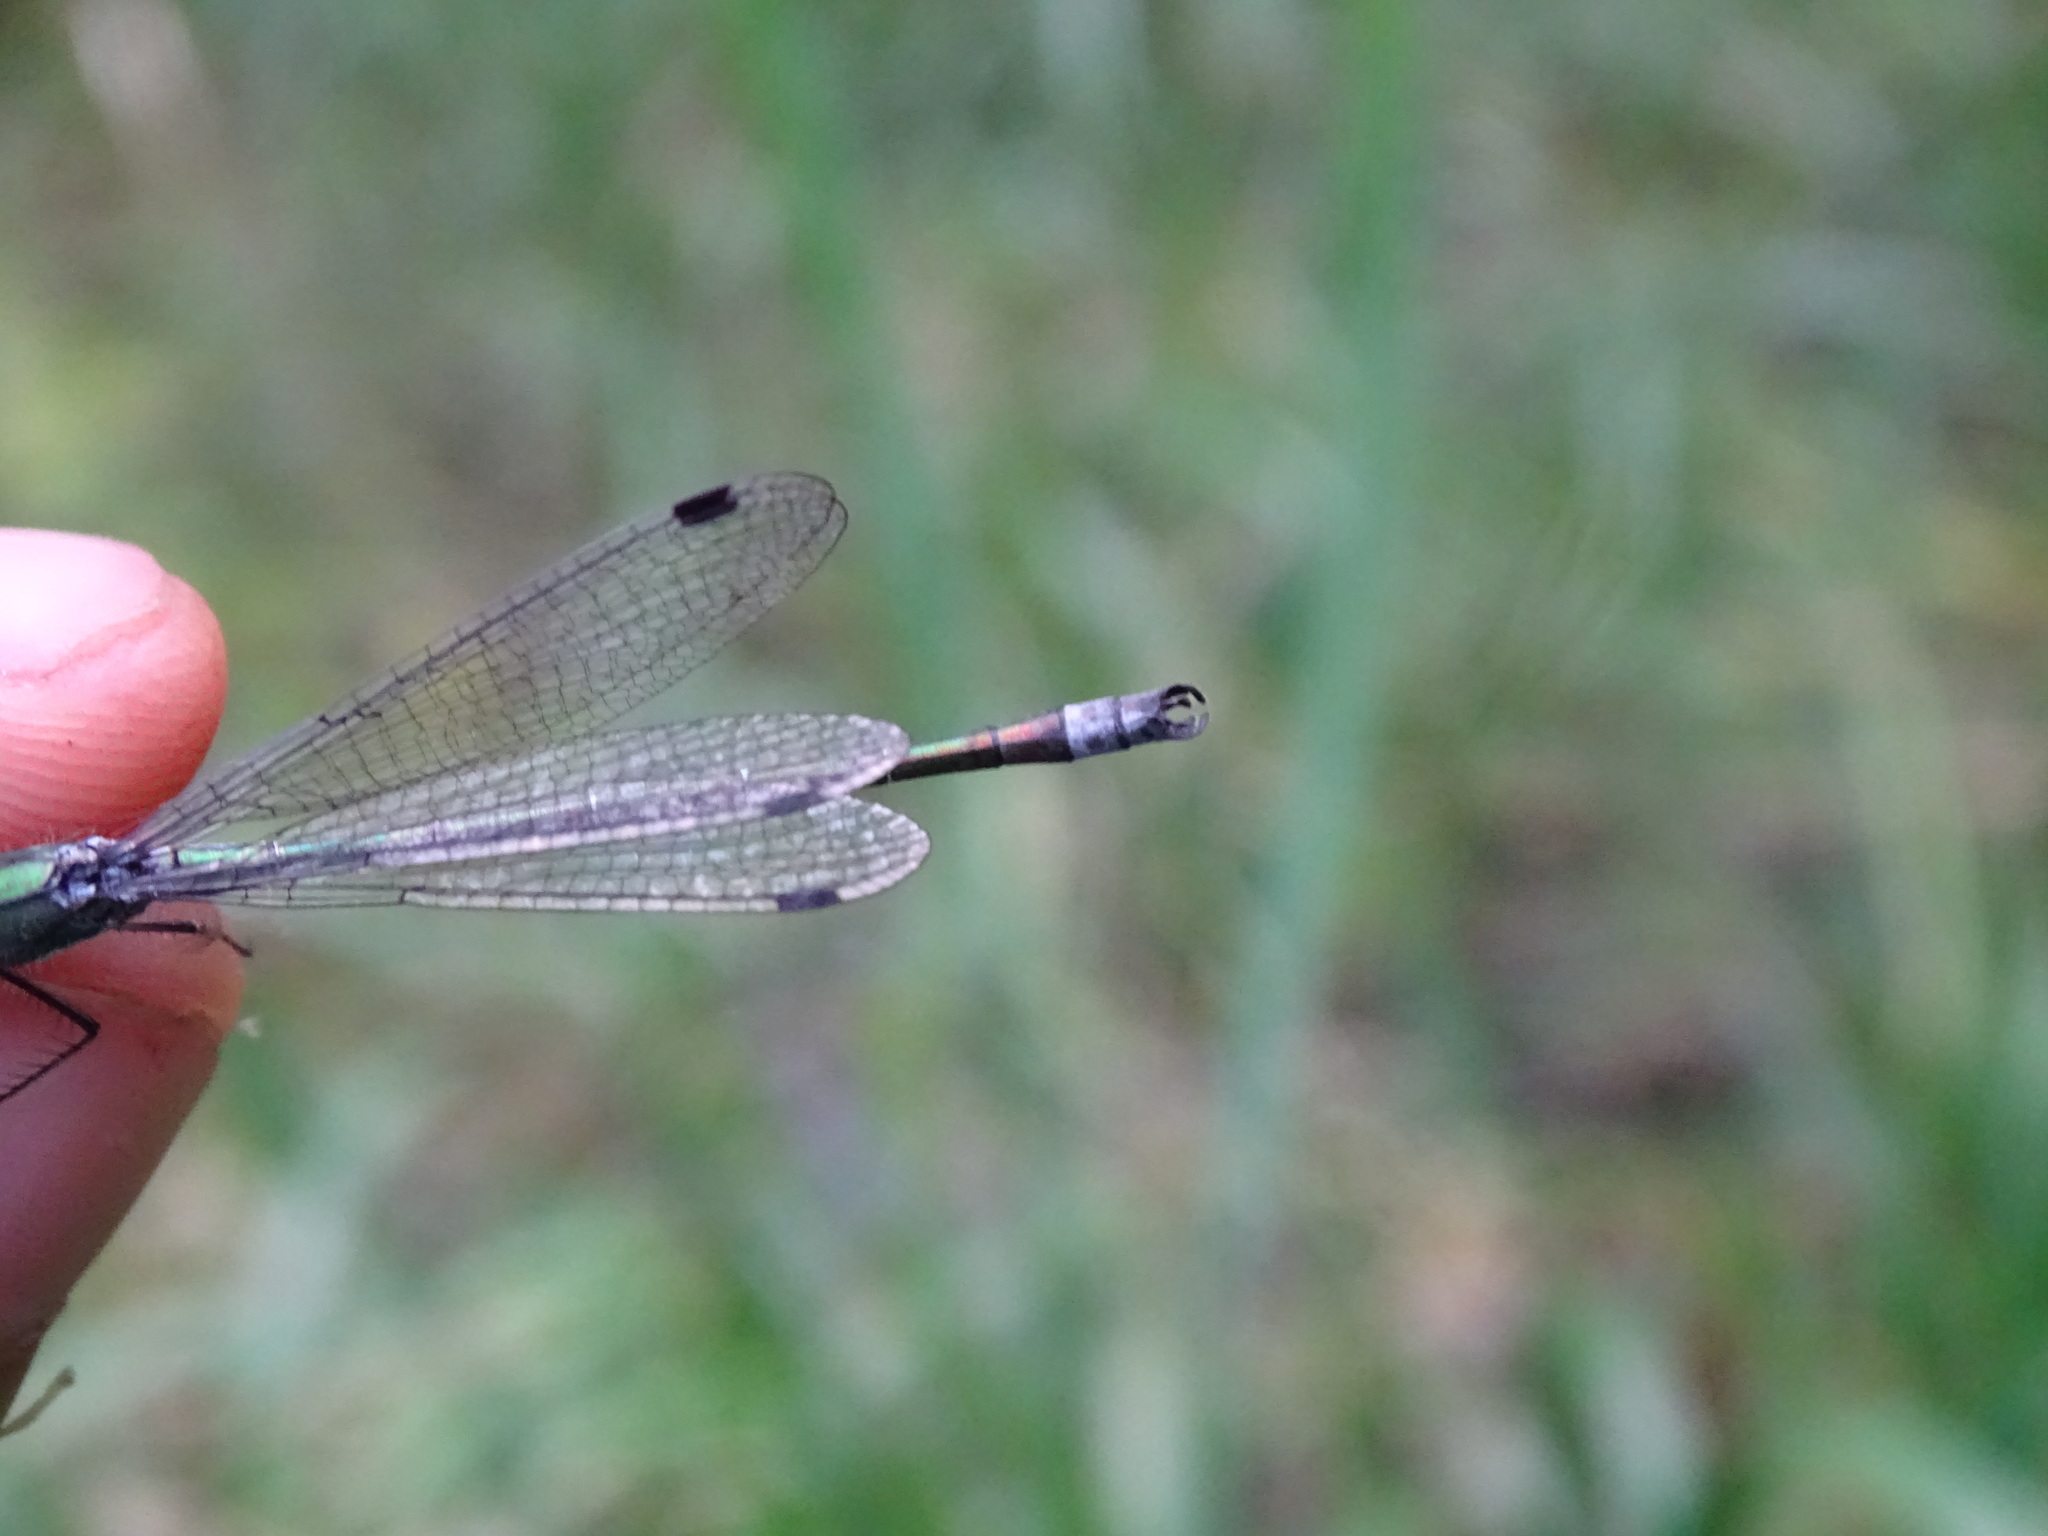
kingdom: Animalia
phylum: Arthropoda
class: Insecta
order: Odonata
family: Lestidae
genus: Lestes
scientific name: Lestes dryas
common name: Scarce emerald damselfly
